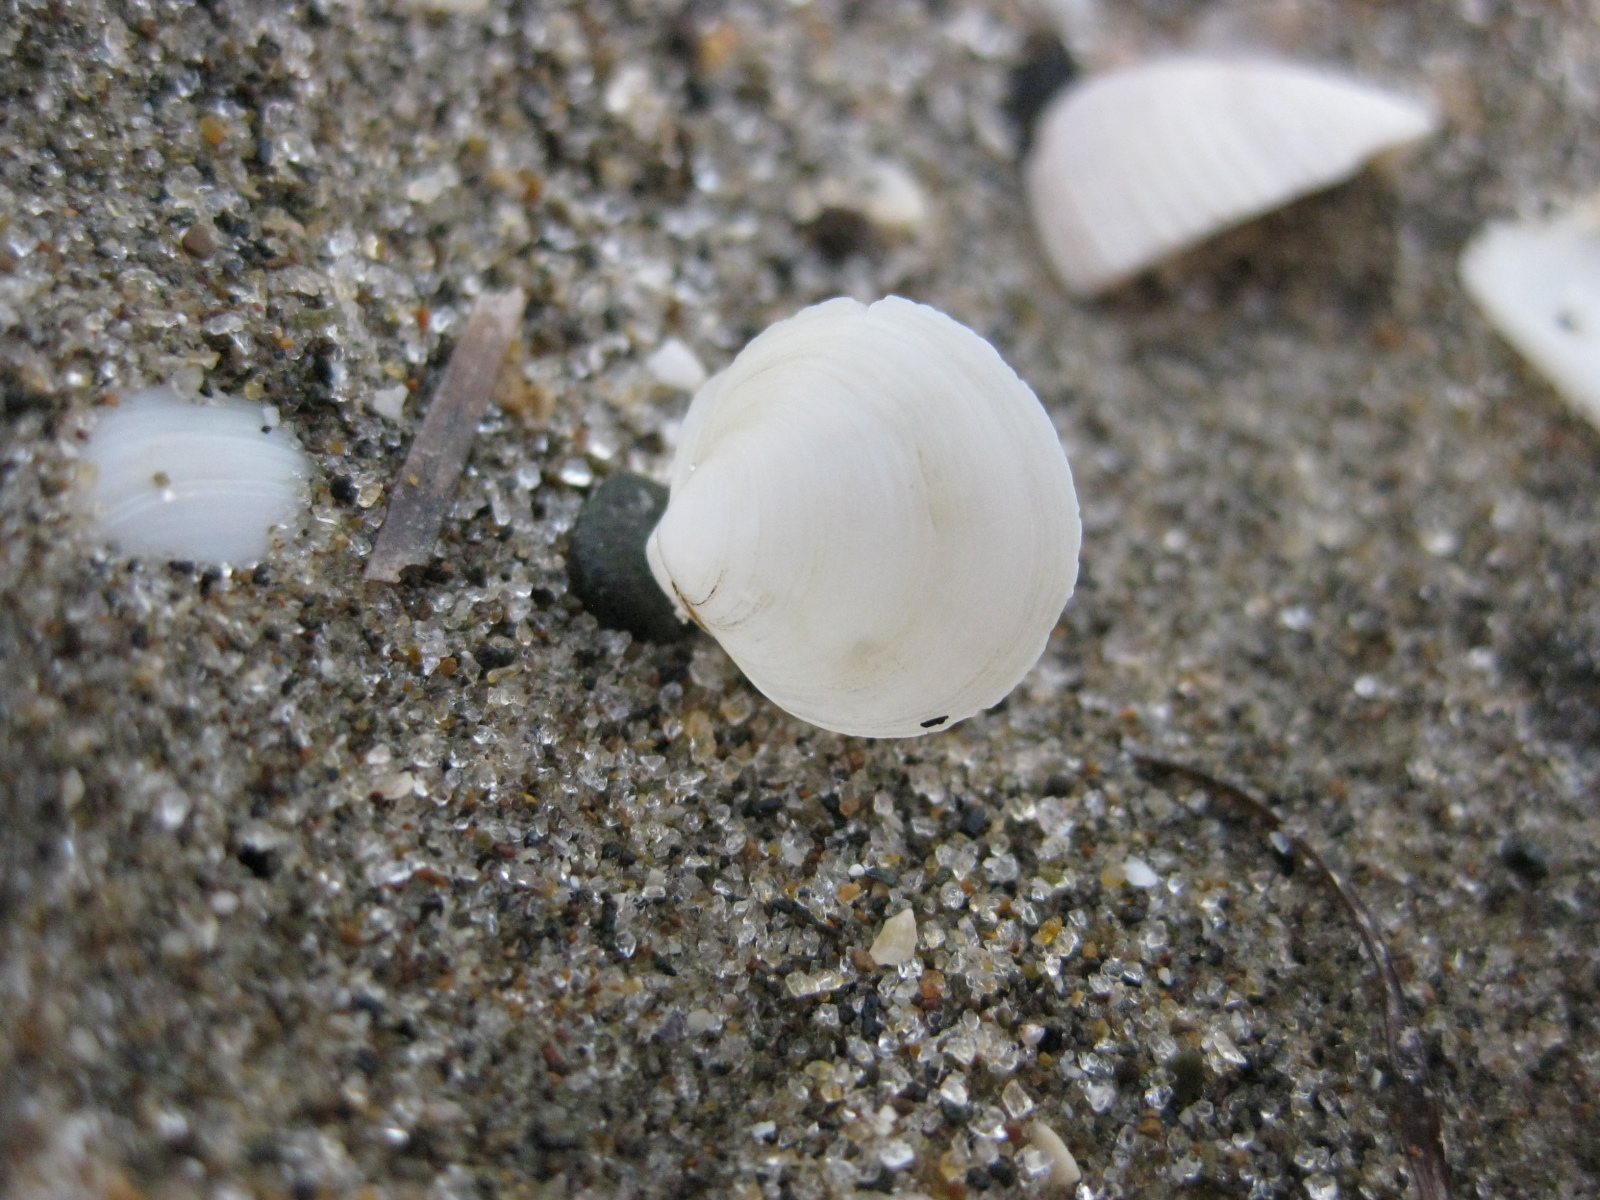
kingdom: Animalia
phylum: Mollusca
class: Bivalvia
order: Venerida
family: Ungulinidae
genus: Zemysia
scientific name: Zemysia zelandica
